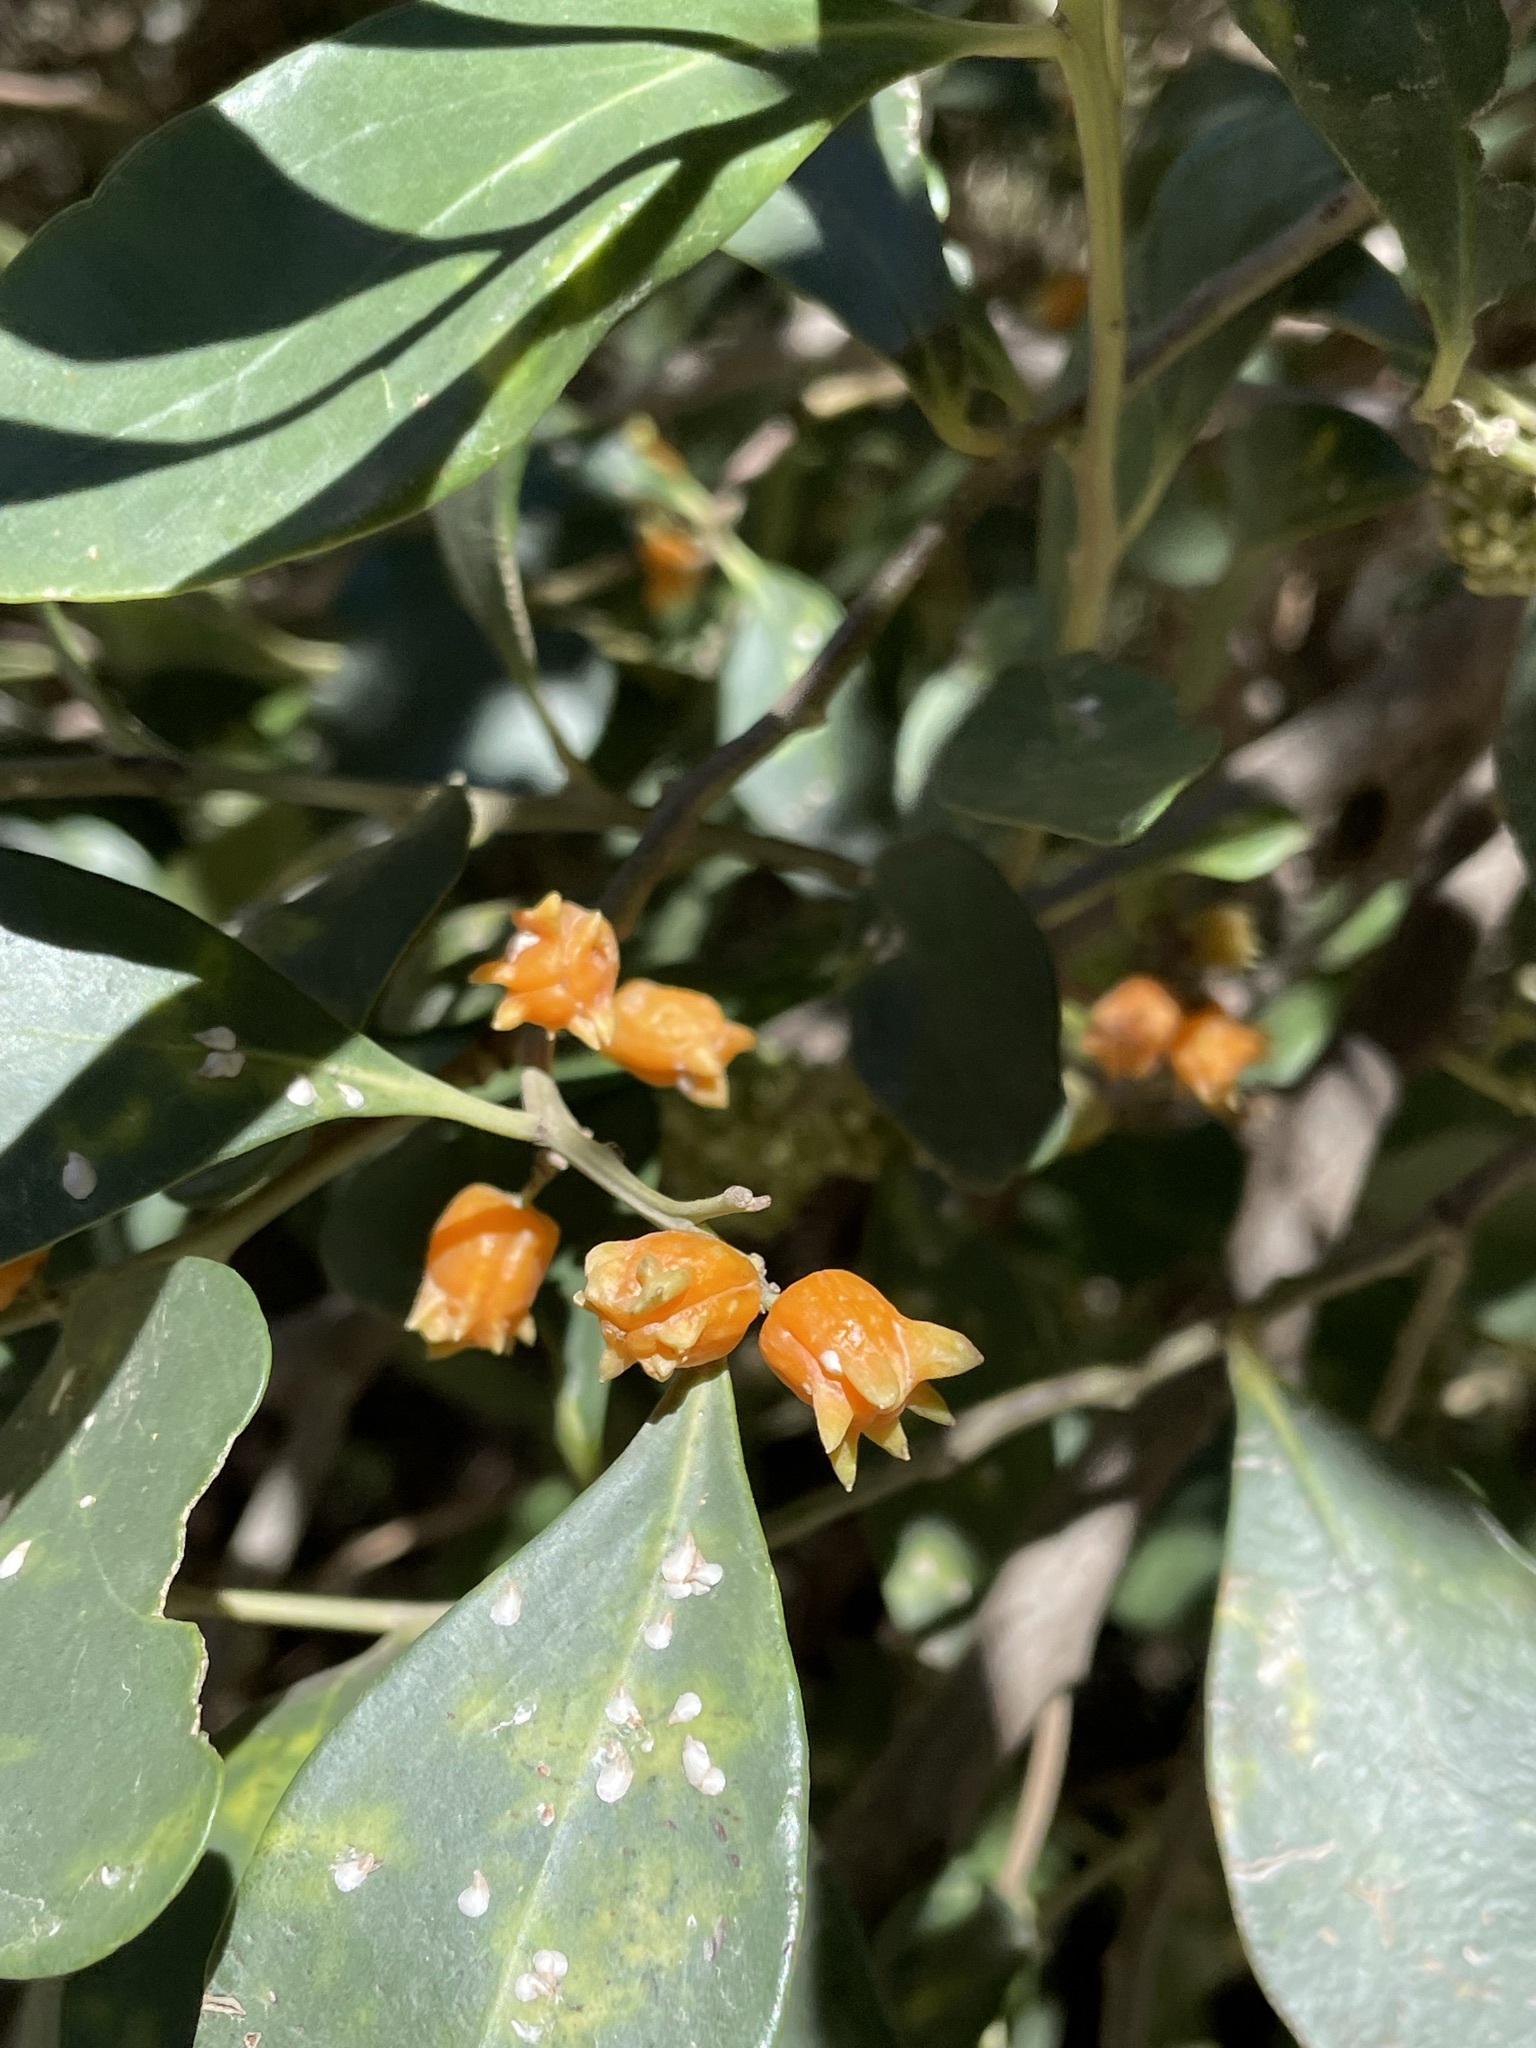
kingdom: Plantae
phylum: Tracheophyta
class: Magnoliopsida
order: Celastrales
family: Celastraceae
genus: Pterocelastrus
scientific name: Pterocelastrus tricuspidatus
